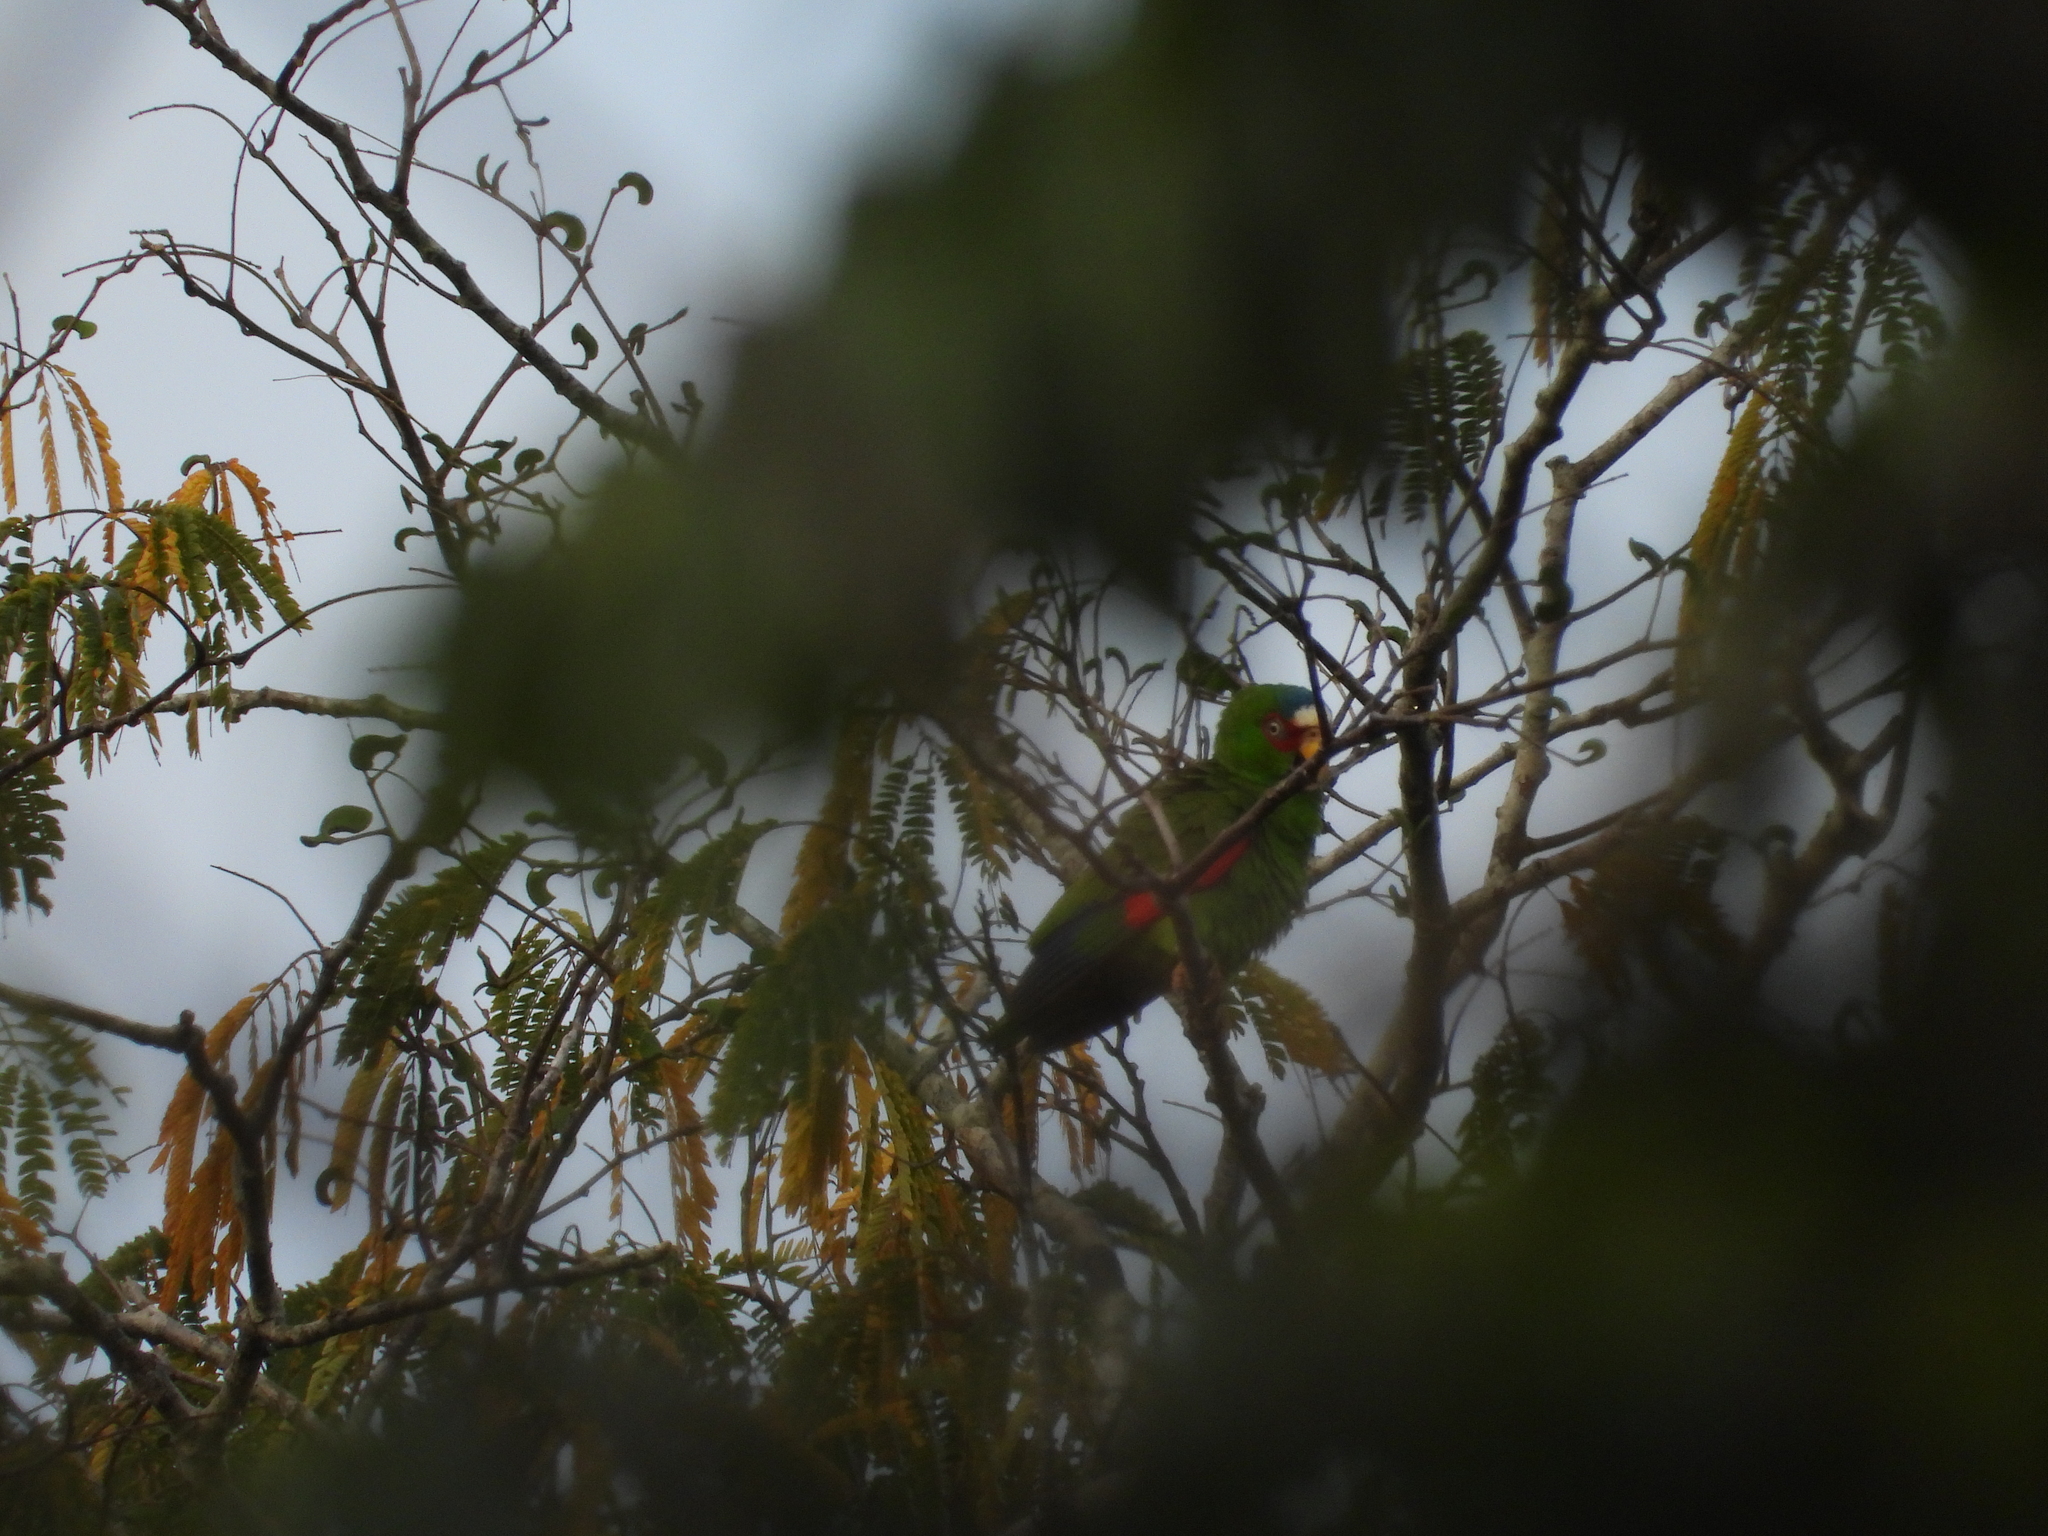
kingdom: Animalia
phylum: Chordata
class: Aves
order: Psittaciformes
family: Psittacidae
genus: Amazona
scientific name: Amazona albifrons
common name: White-fronted amazon
